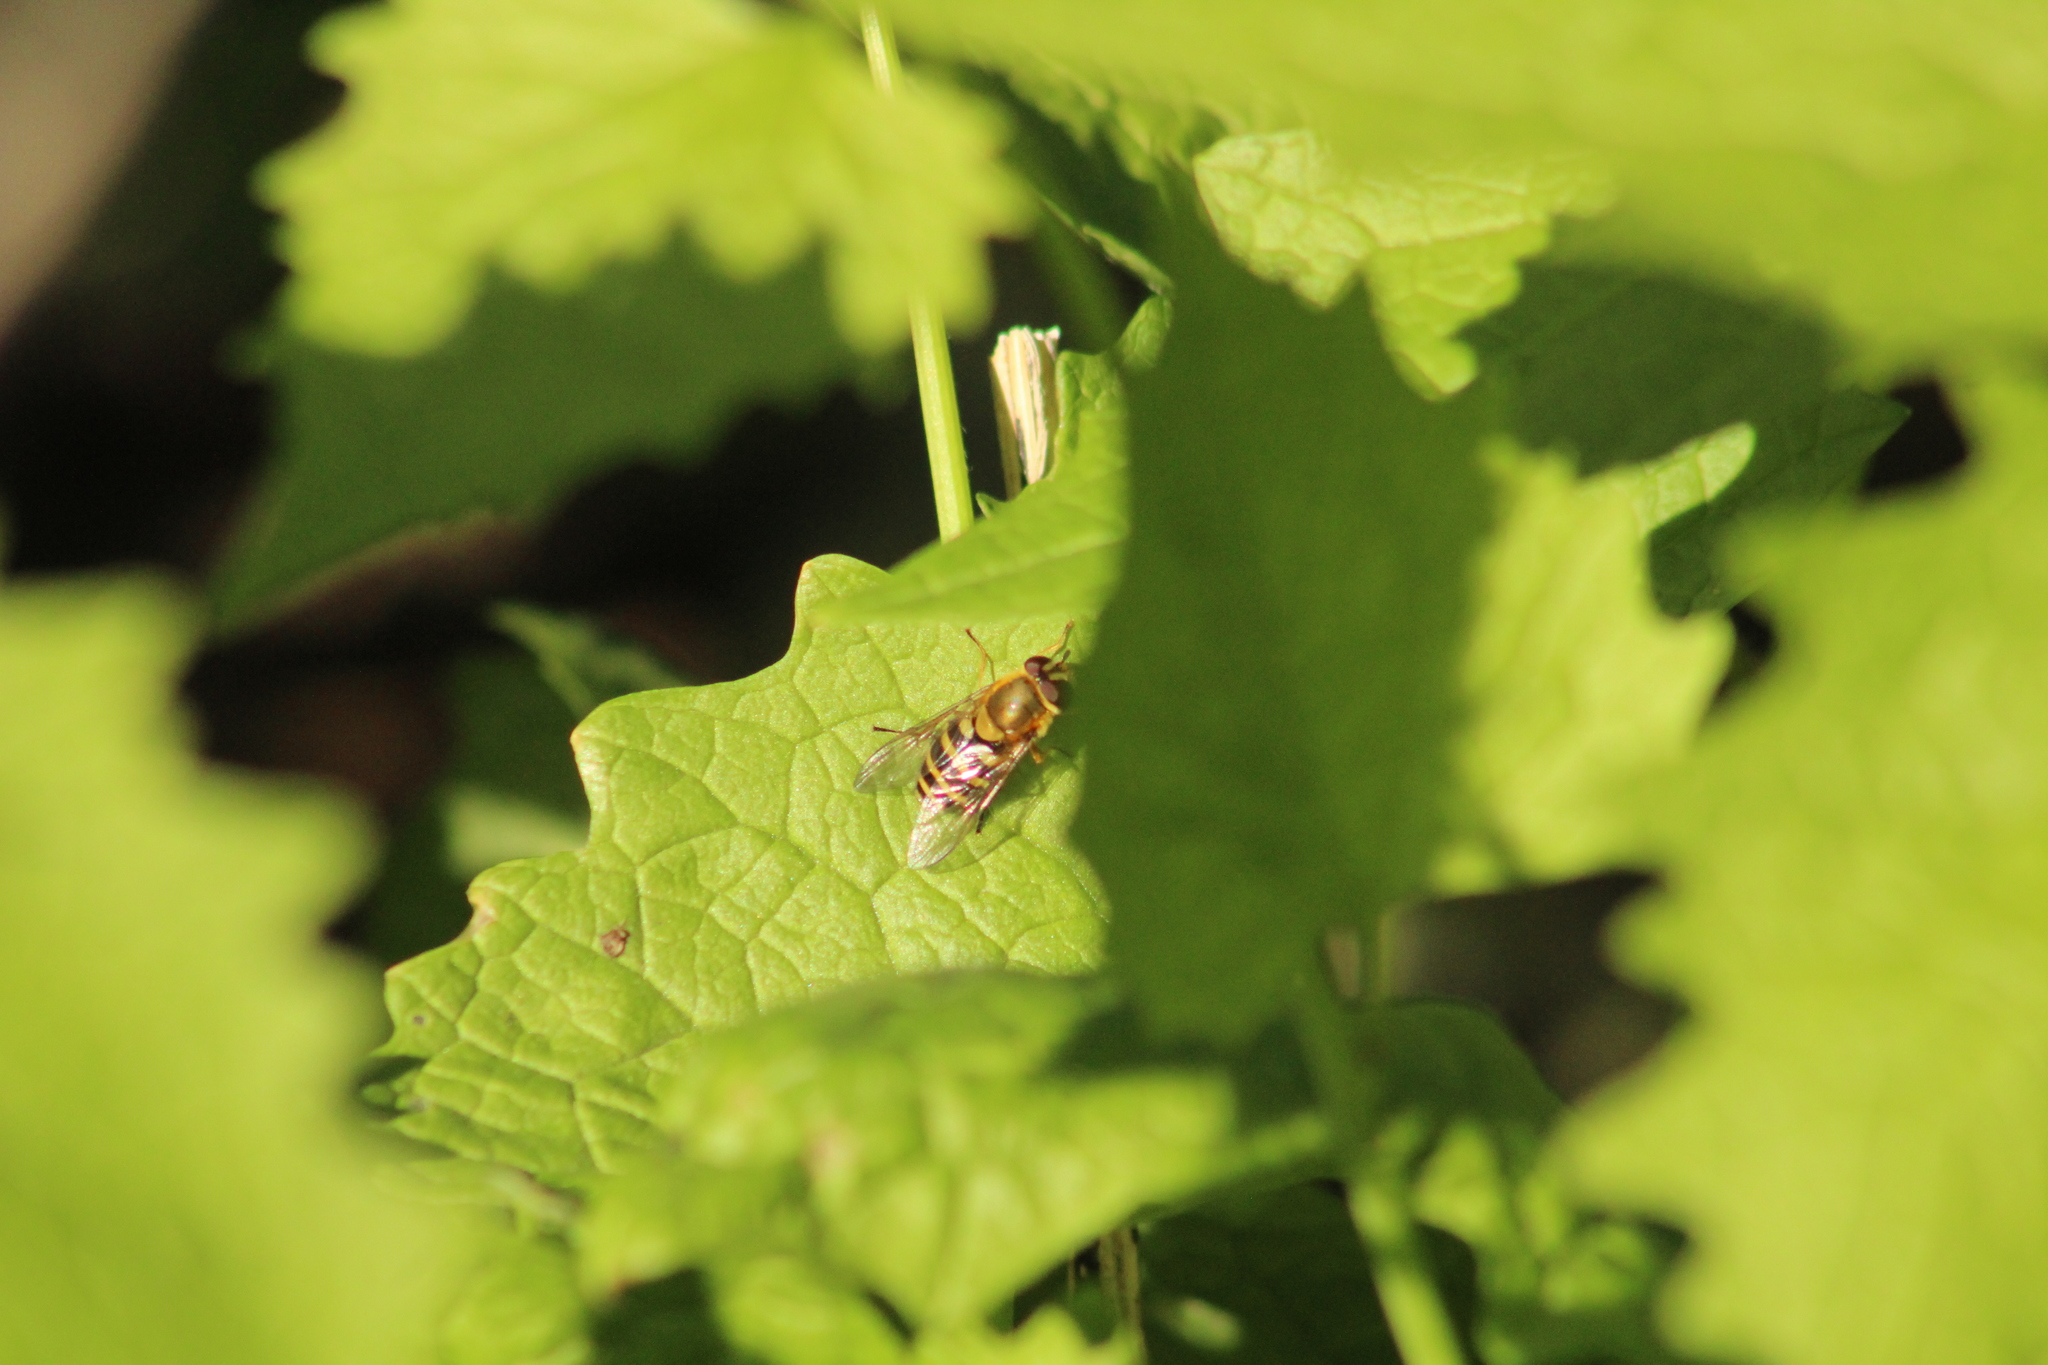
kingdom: Animalia
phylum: Arthropoda
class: Insecta
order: Diptera
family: Syrphidae
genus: Syrphus
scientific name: Syrphus
